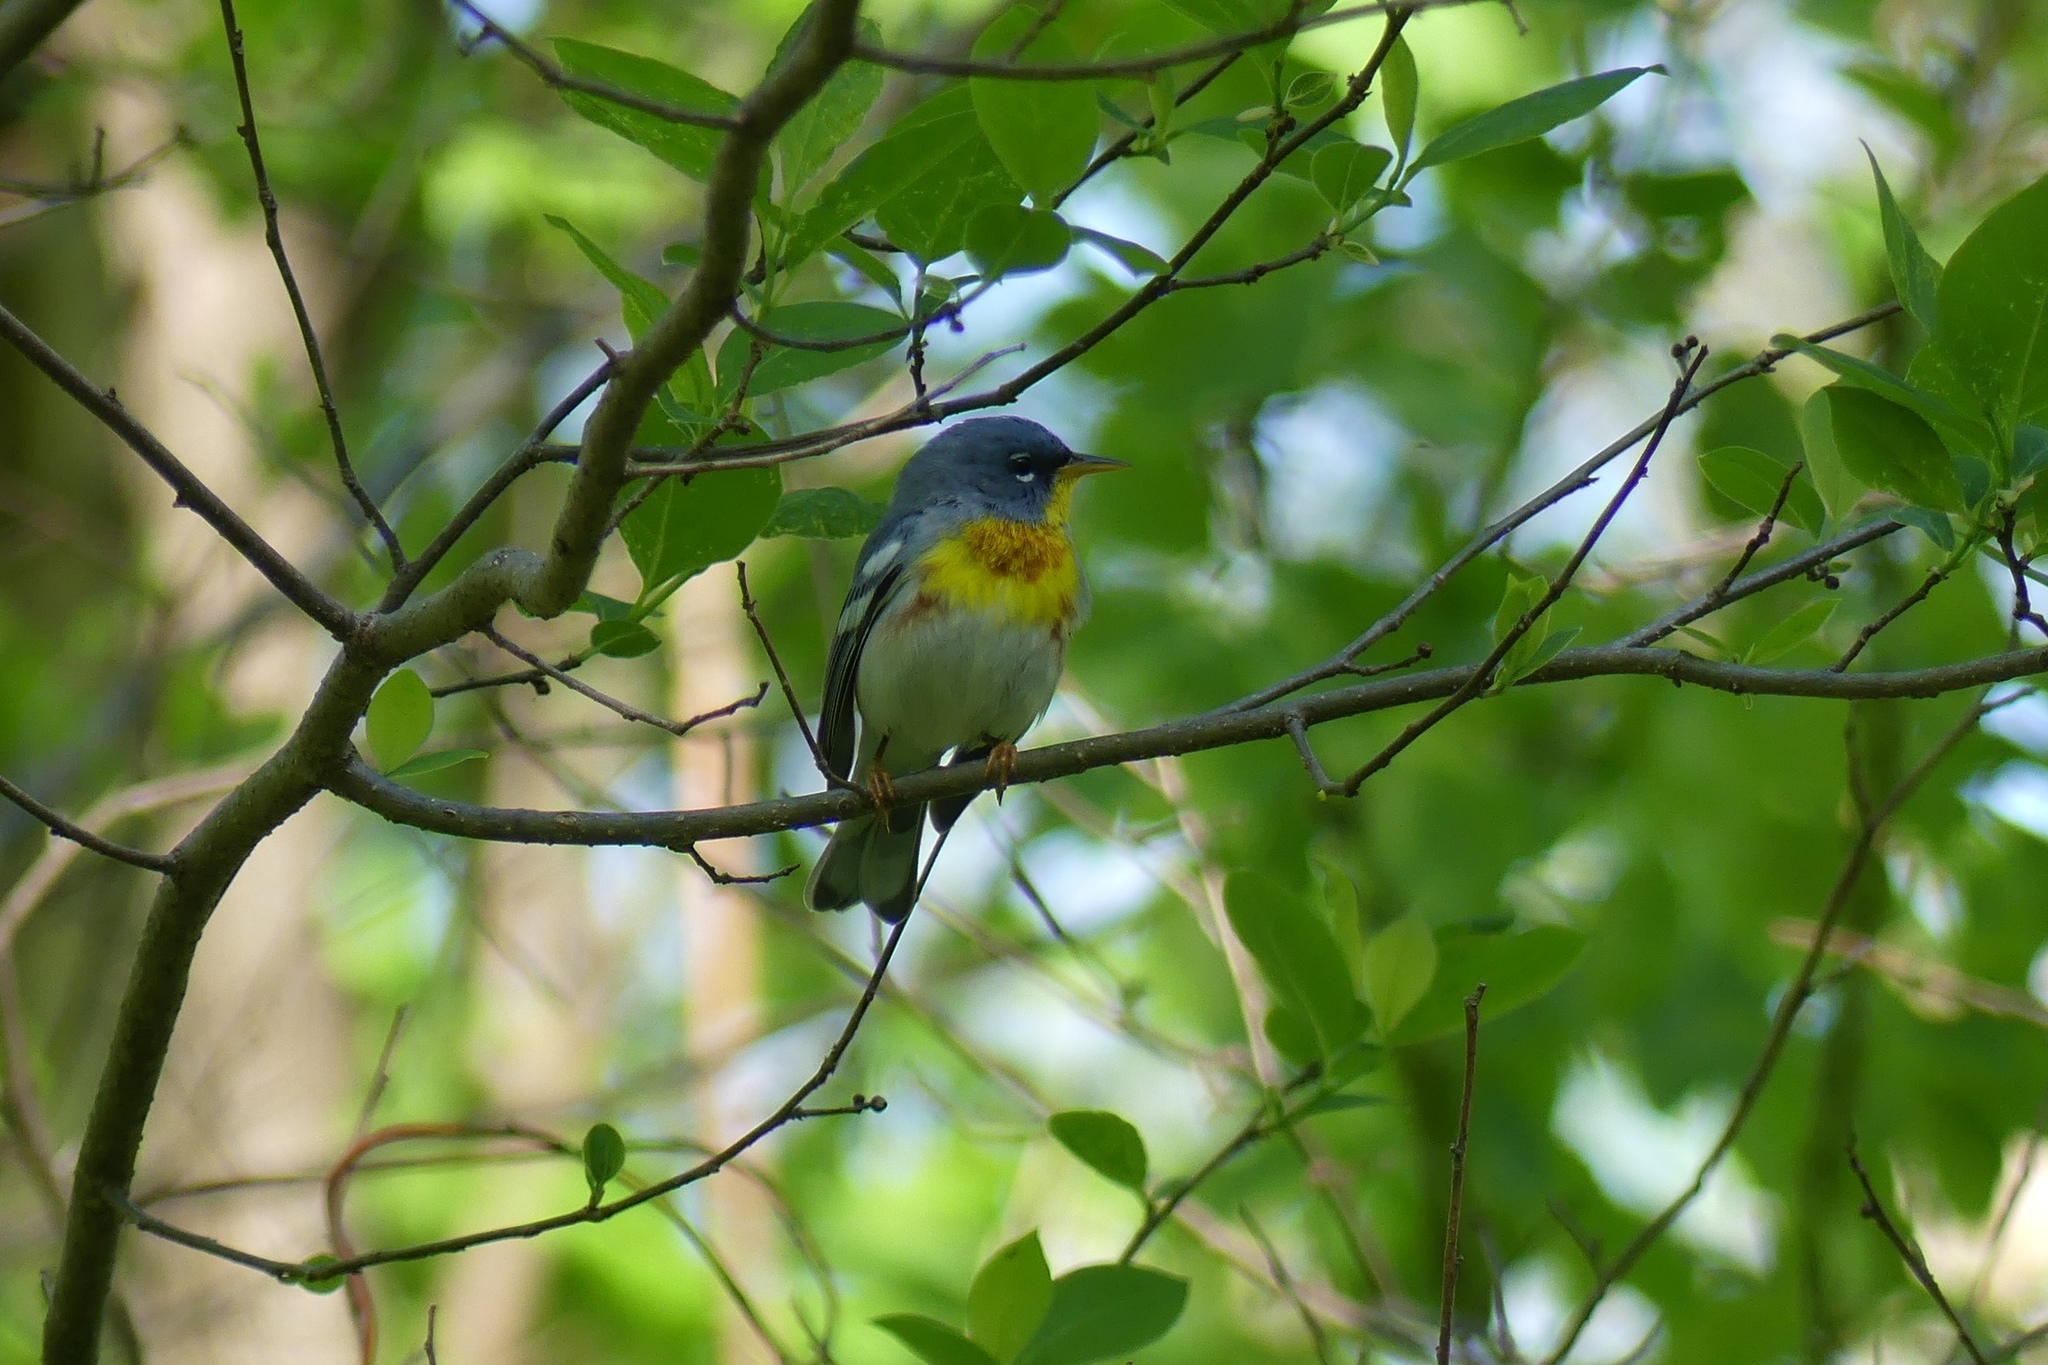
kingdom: Animalia
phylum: Chordata
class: Aves
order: Passeriformes
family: Parulidae
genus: Setophaga
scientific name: Setophaga americana
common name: Northern parula
